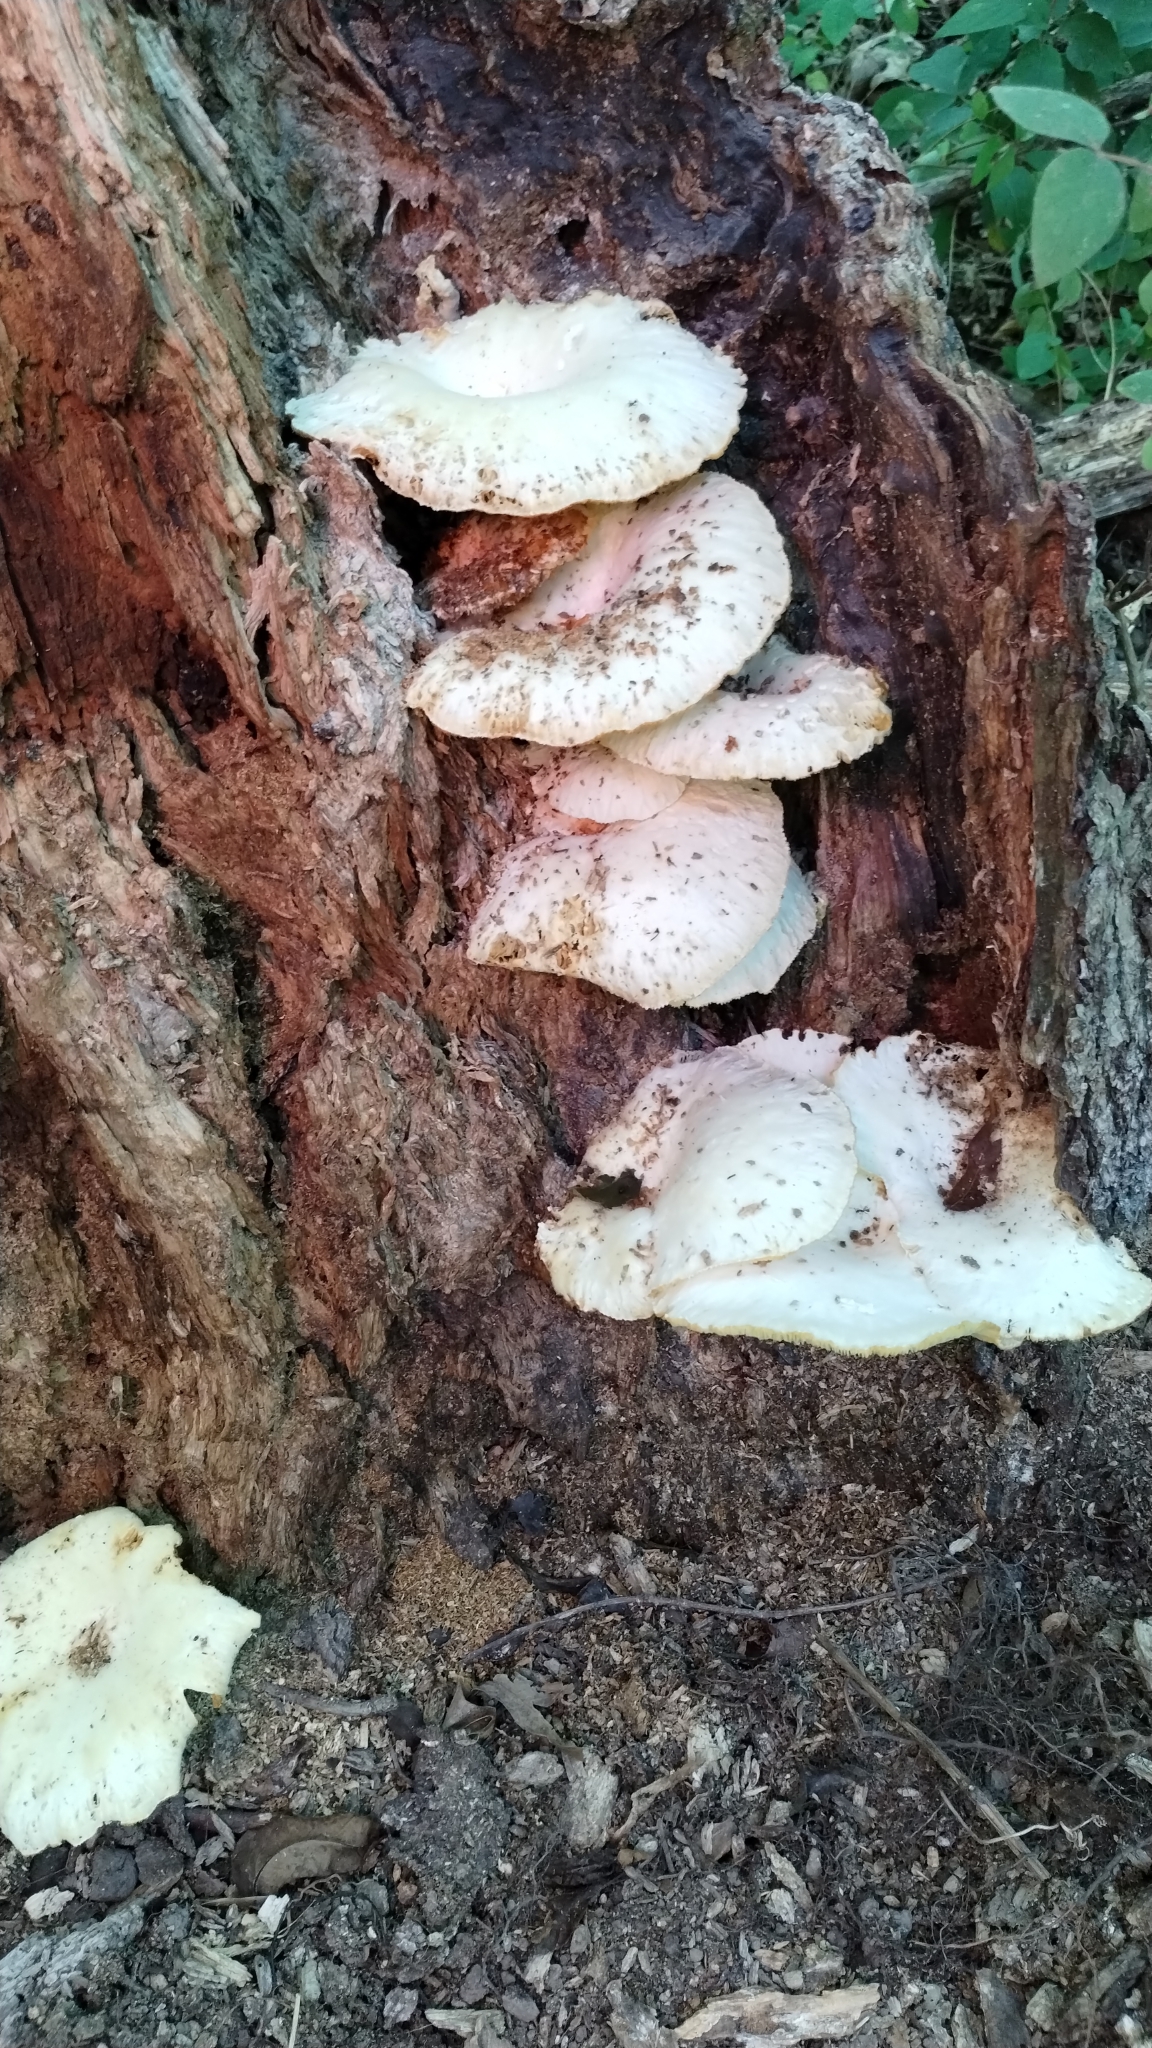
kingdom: Fungi
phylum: Basidiomycota
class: Agaricomycetes
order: Polyporales
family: Polyporaceae
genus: Lentinus
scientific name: Lentinus levis
